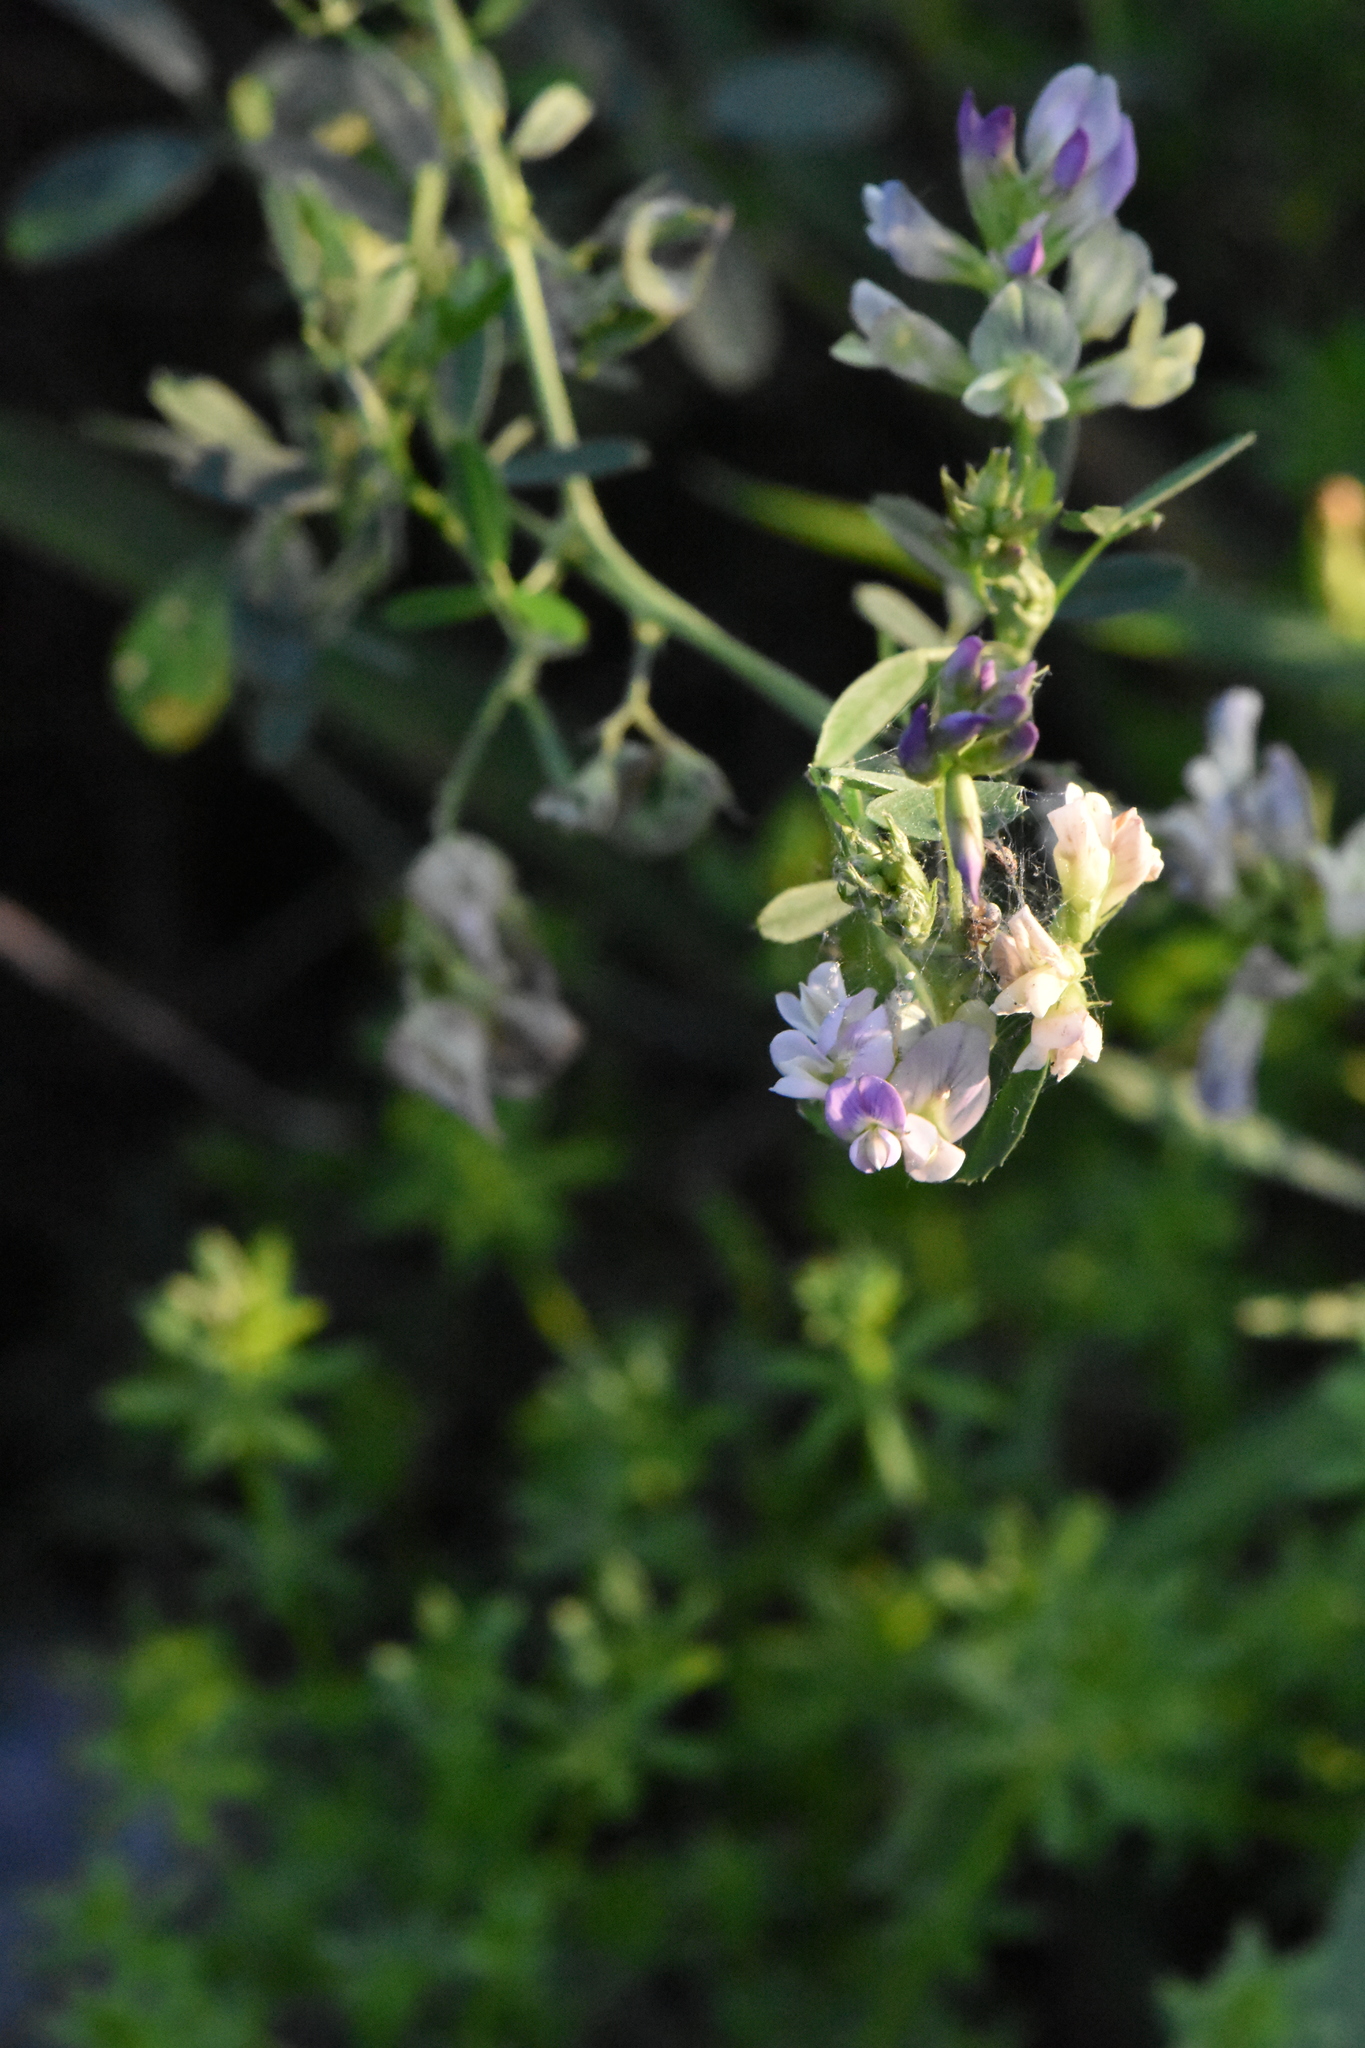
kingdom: Plantae
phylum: Tracheophyta
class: Magnoliopsida
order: Fabales
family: Fabaceae
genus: Medicago
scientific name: Medicago varia
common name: Sand lucerne
